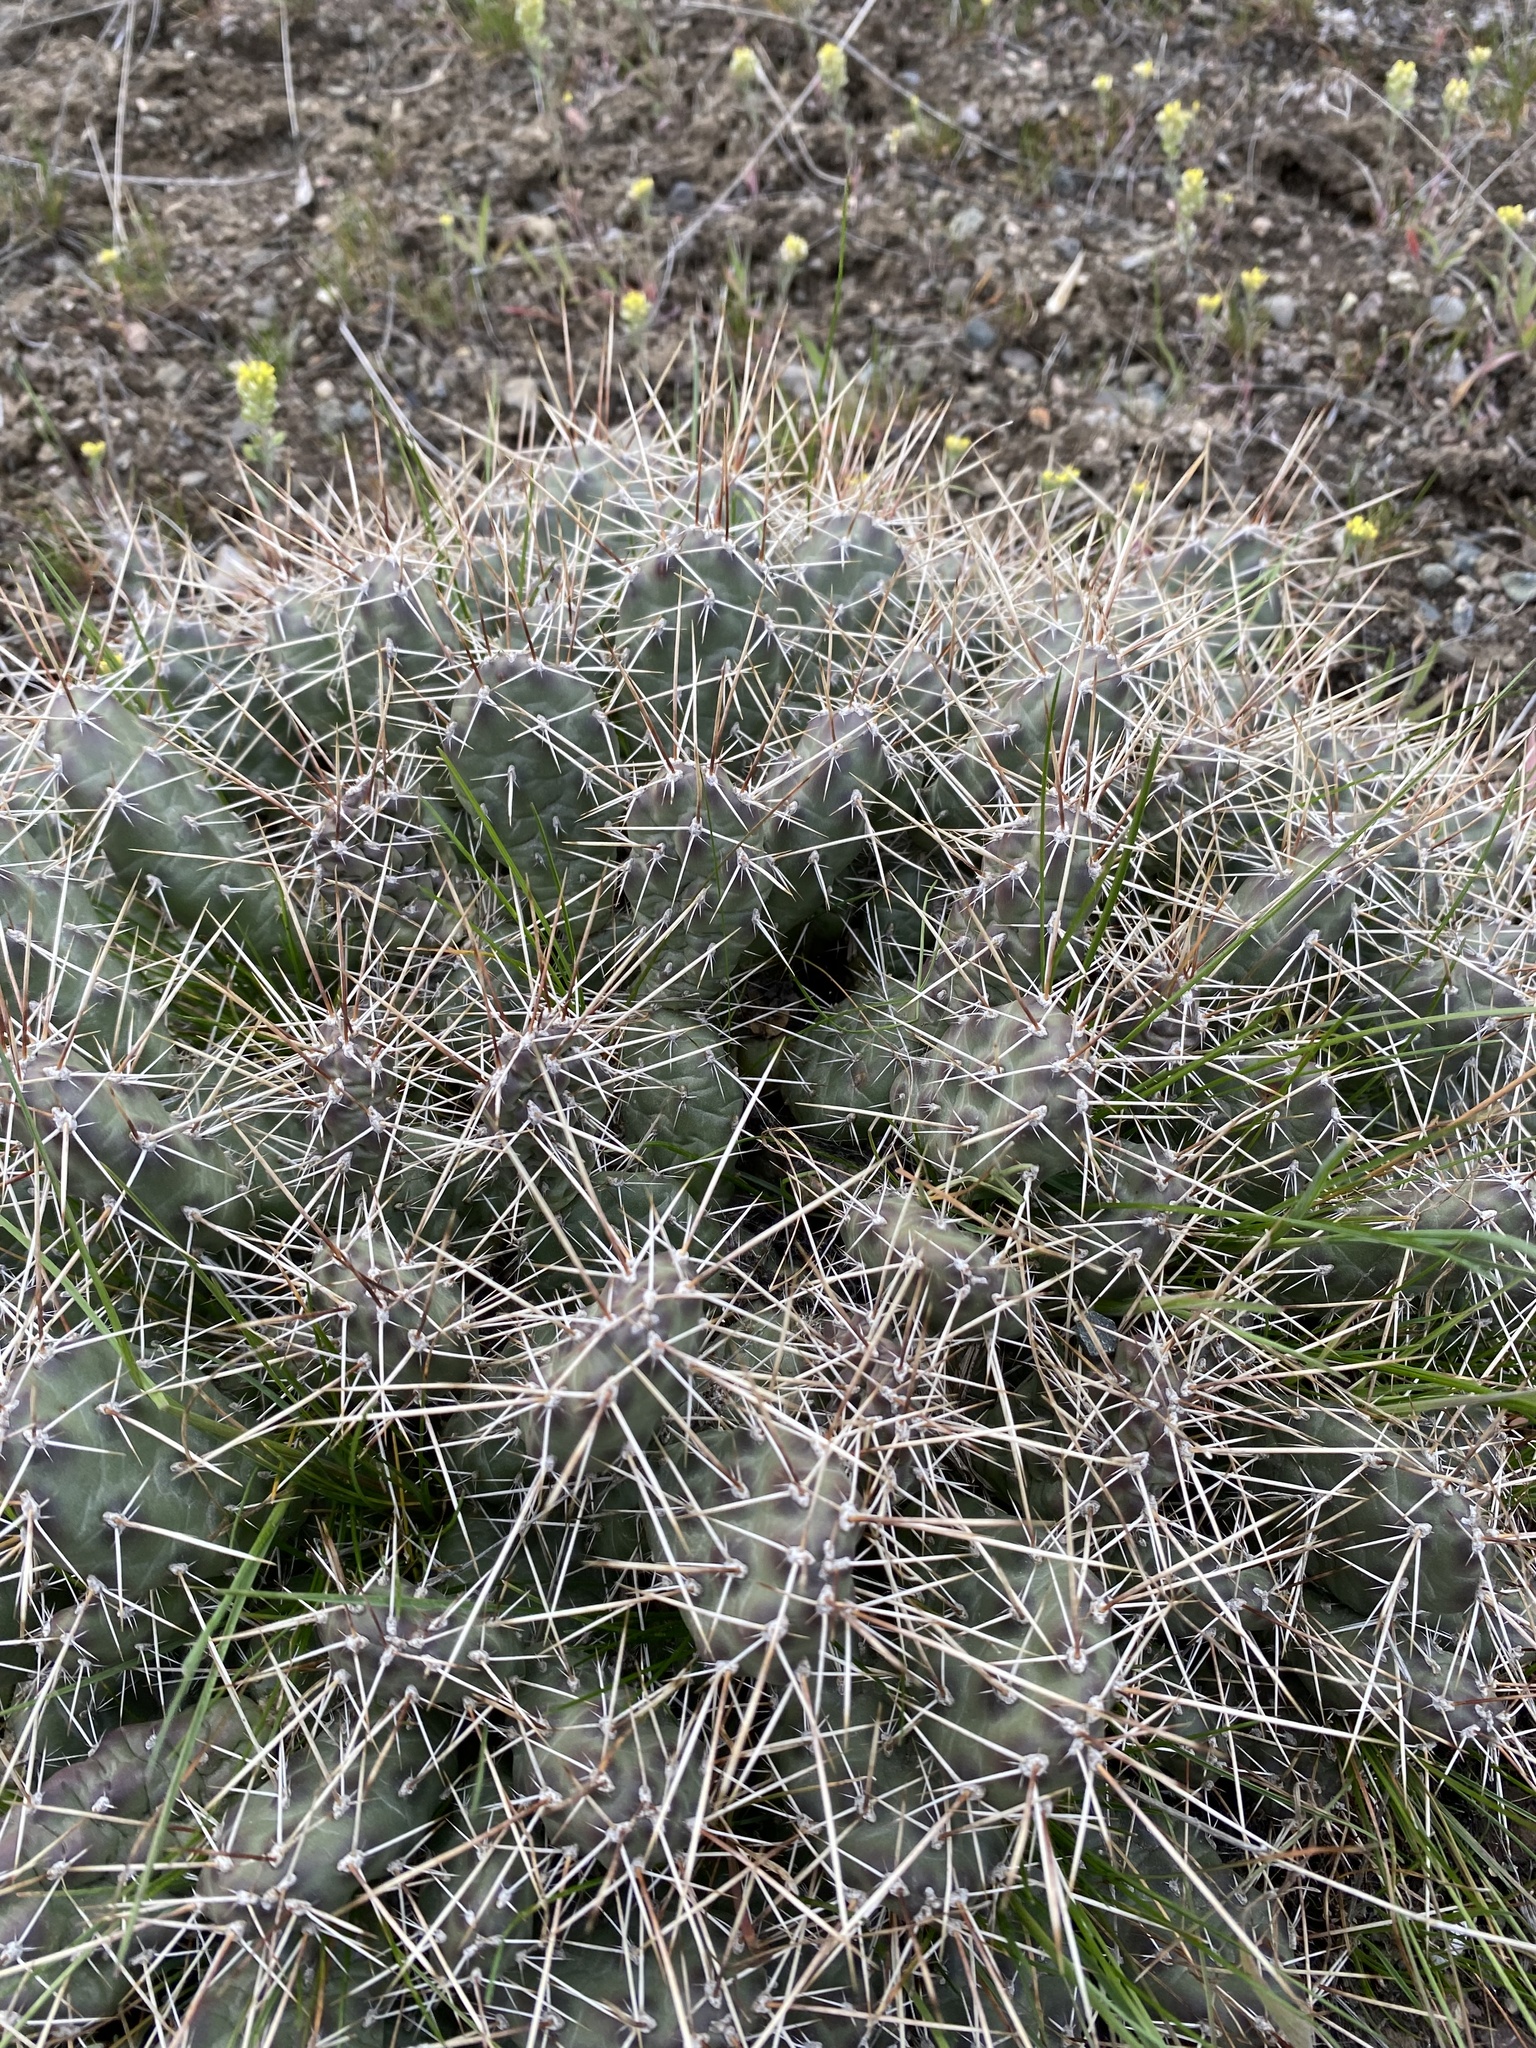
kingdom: Plantae
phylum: Tracheophyta
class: Magnoliopsida
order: Caryophyllales
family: Cactaceae
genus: Opuntia
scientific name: Opuntia fragilis
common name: Brittle cactus
